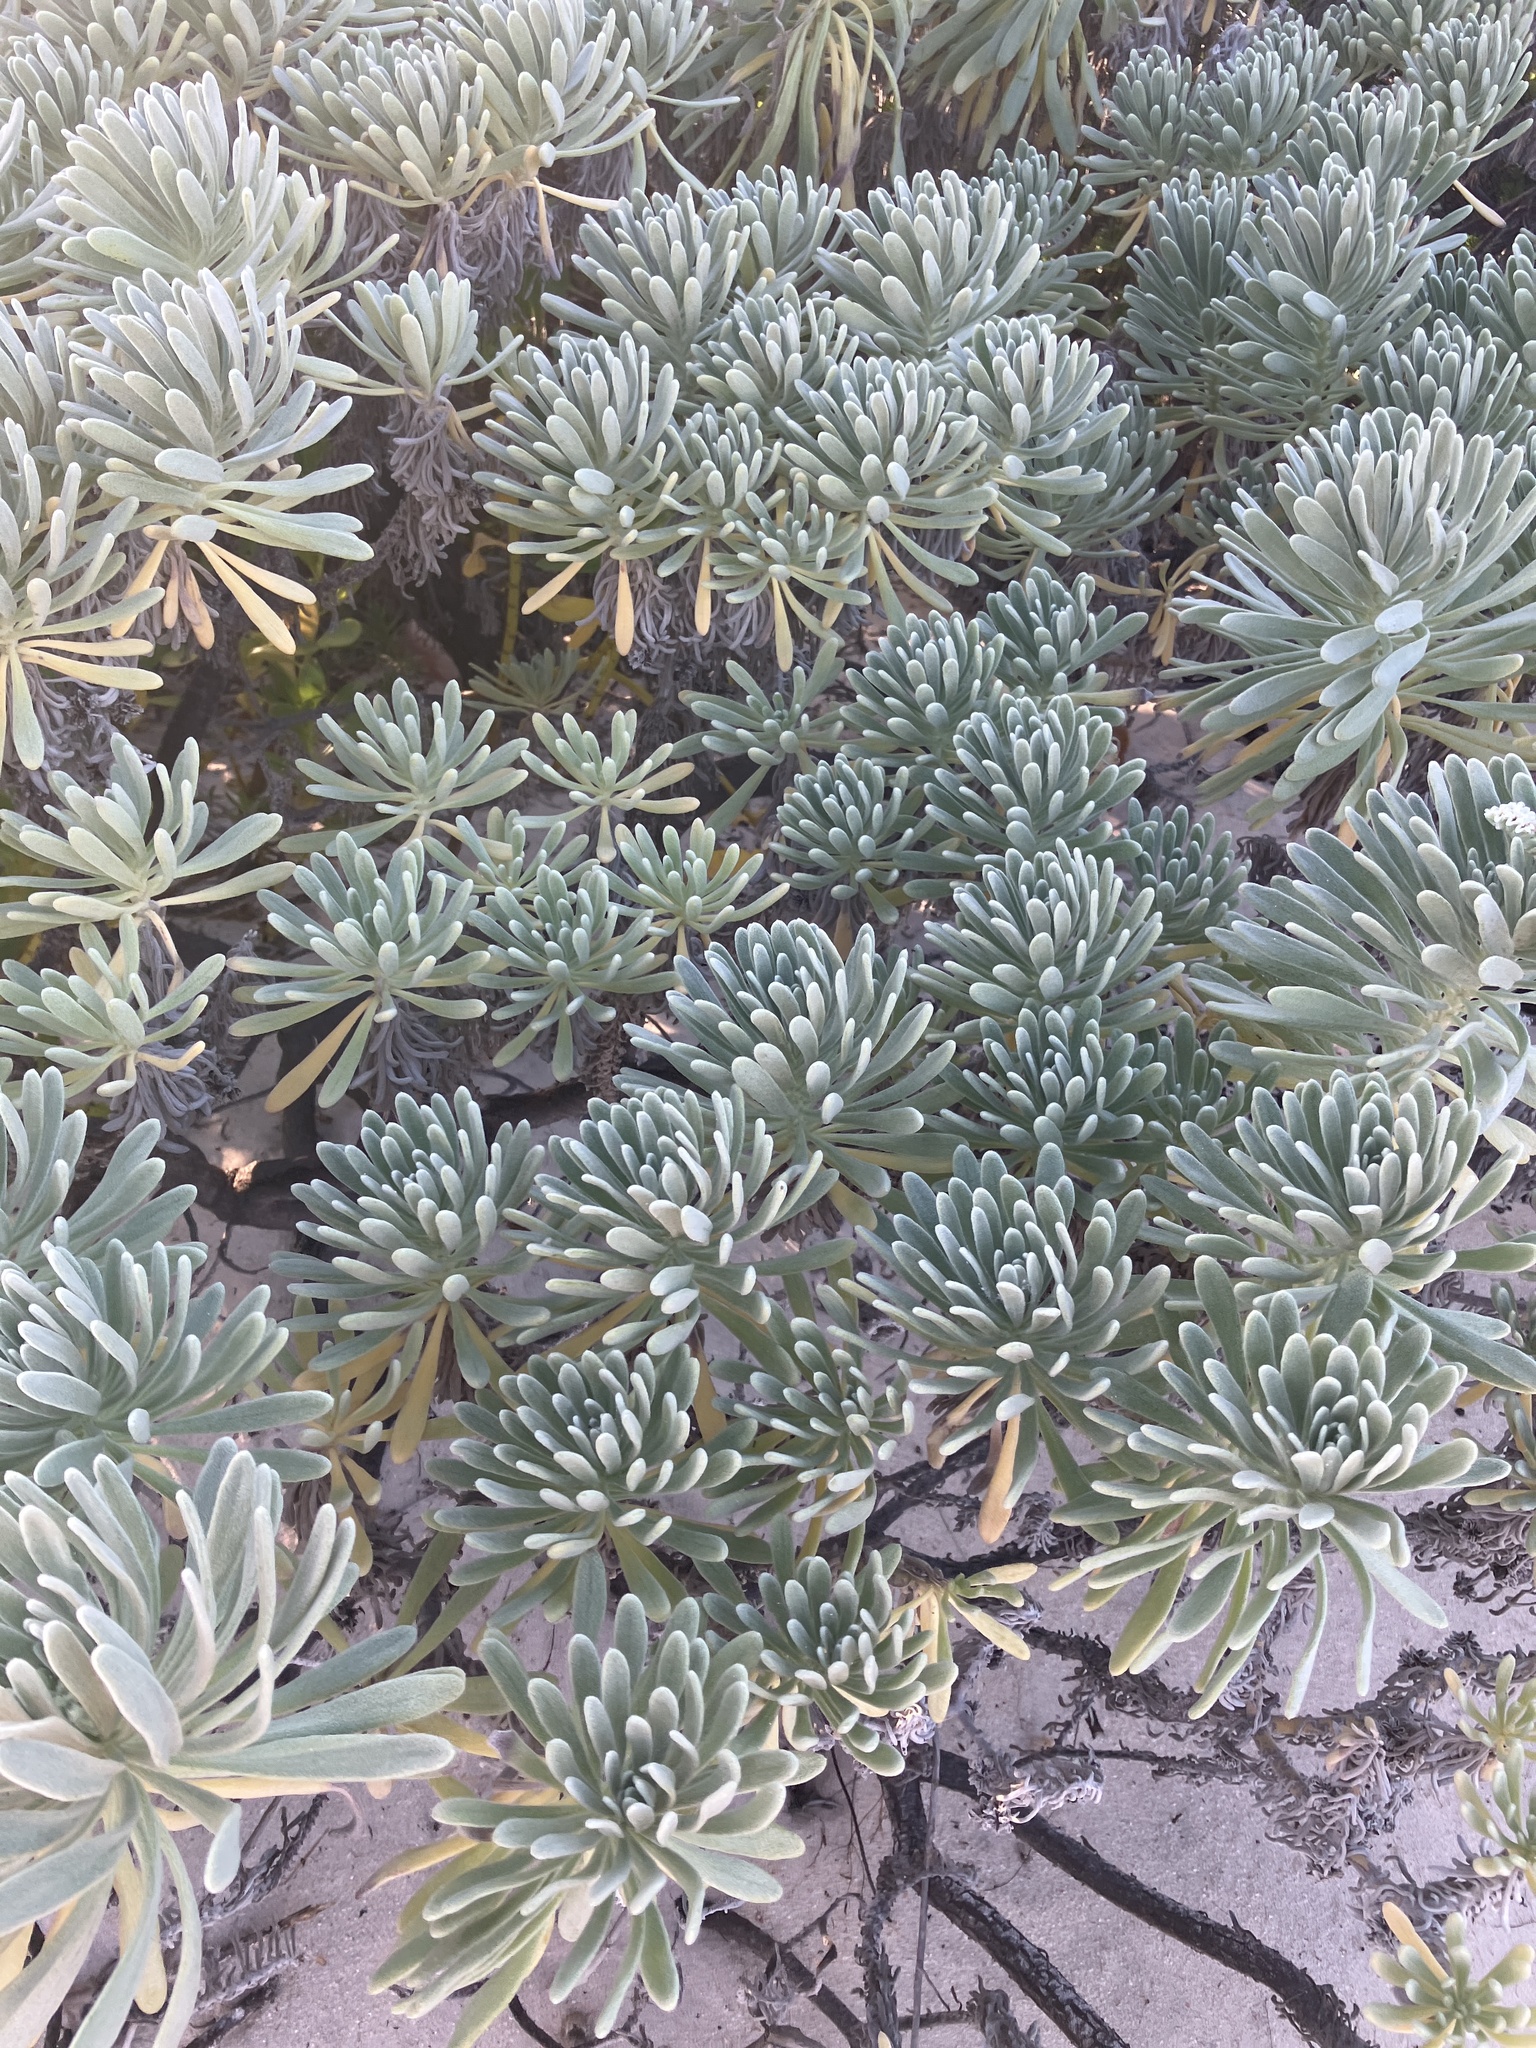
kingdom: Plantae
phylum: Tracheophyta
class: Magnoliopsida
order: Boraginales
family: Heliotropiaceae
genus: Tournefortia
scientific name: Tournefortia gnaphalodes
